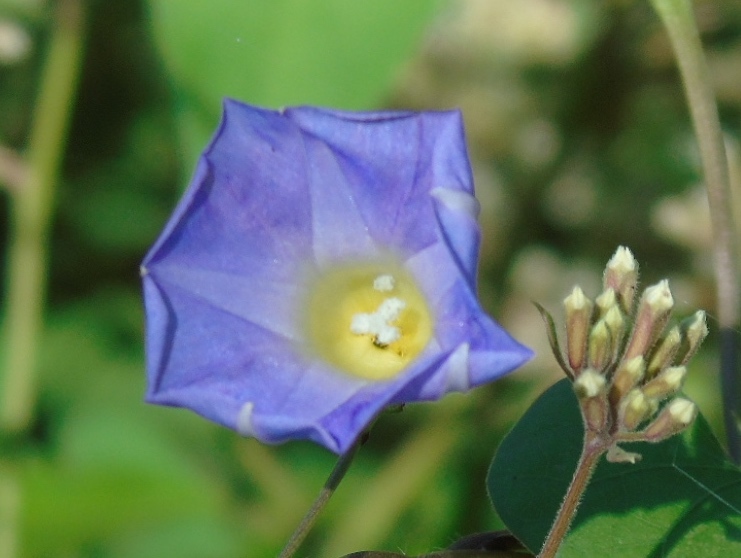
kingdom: Plantae
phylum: Tracheophyta
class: Magnoliopsida
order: Solanales
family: Convolvulaceae
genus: Ipomoea
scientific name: Ipomoea meyeri
